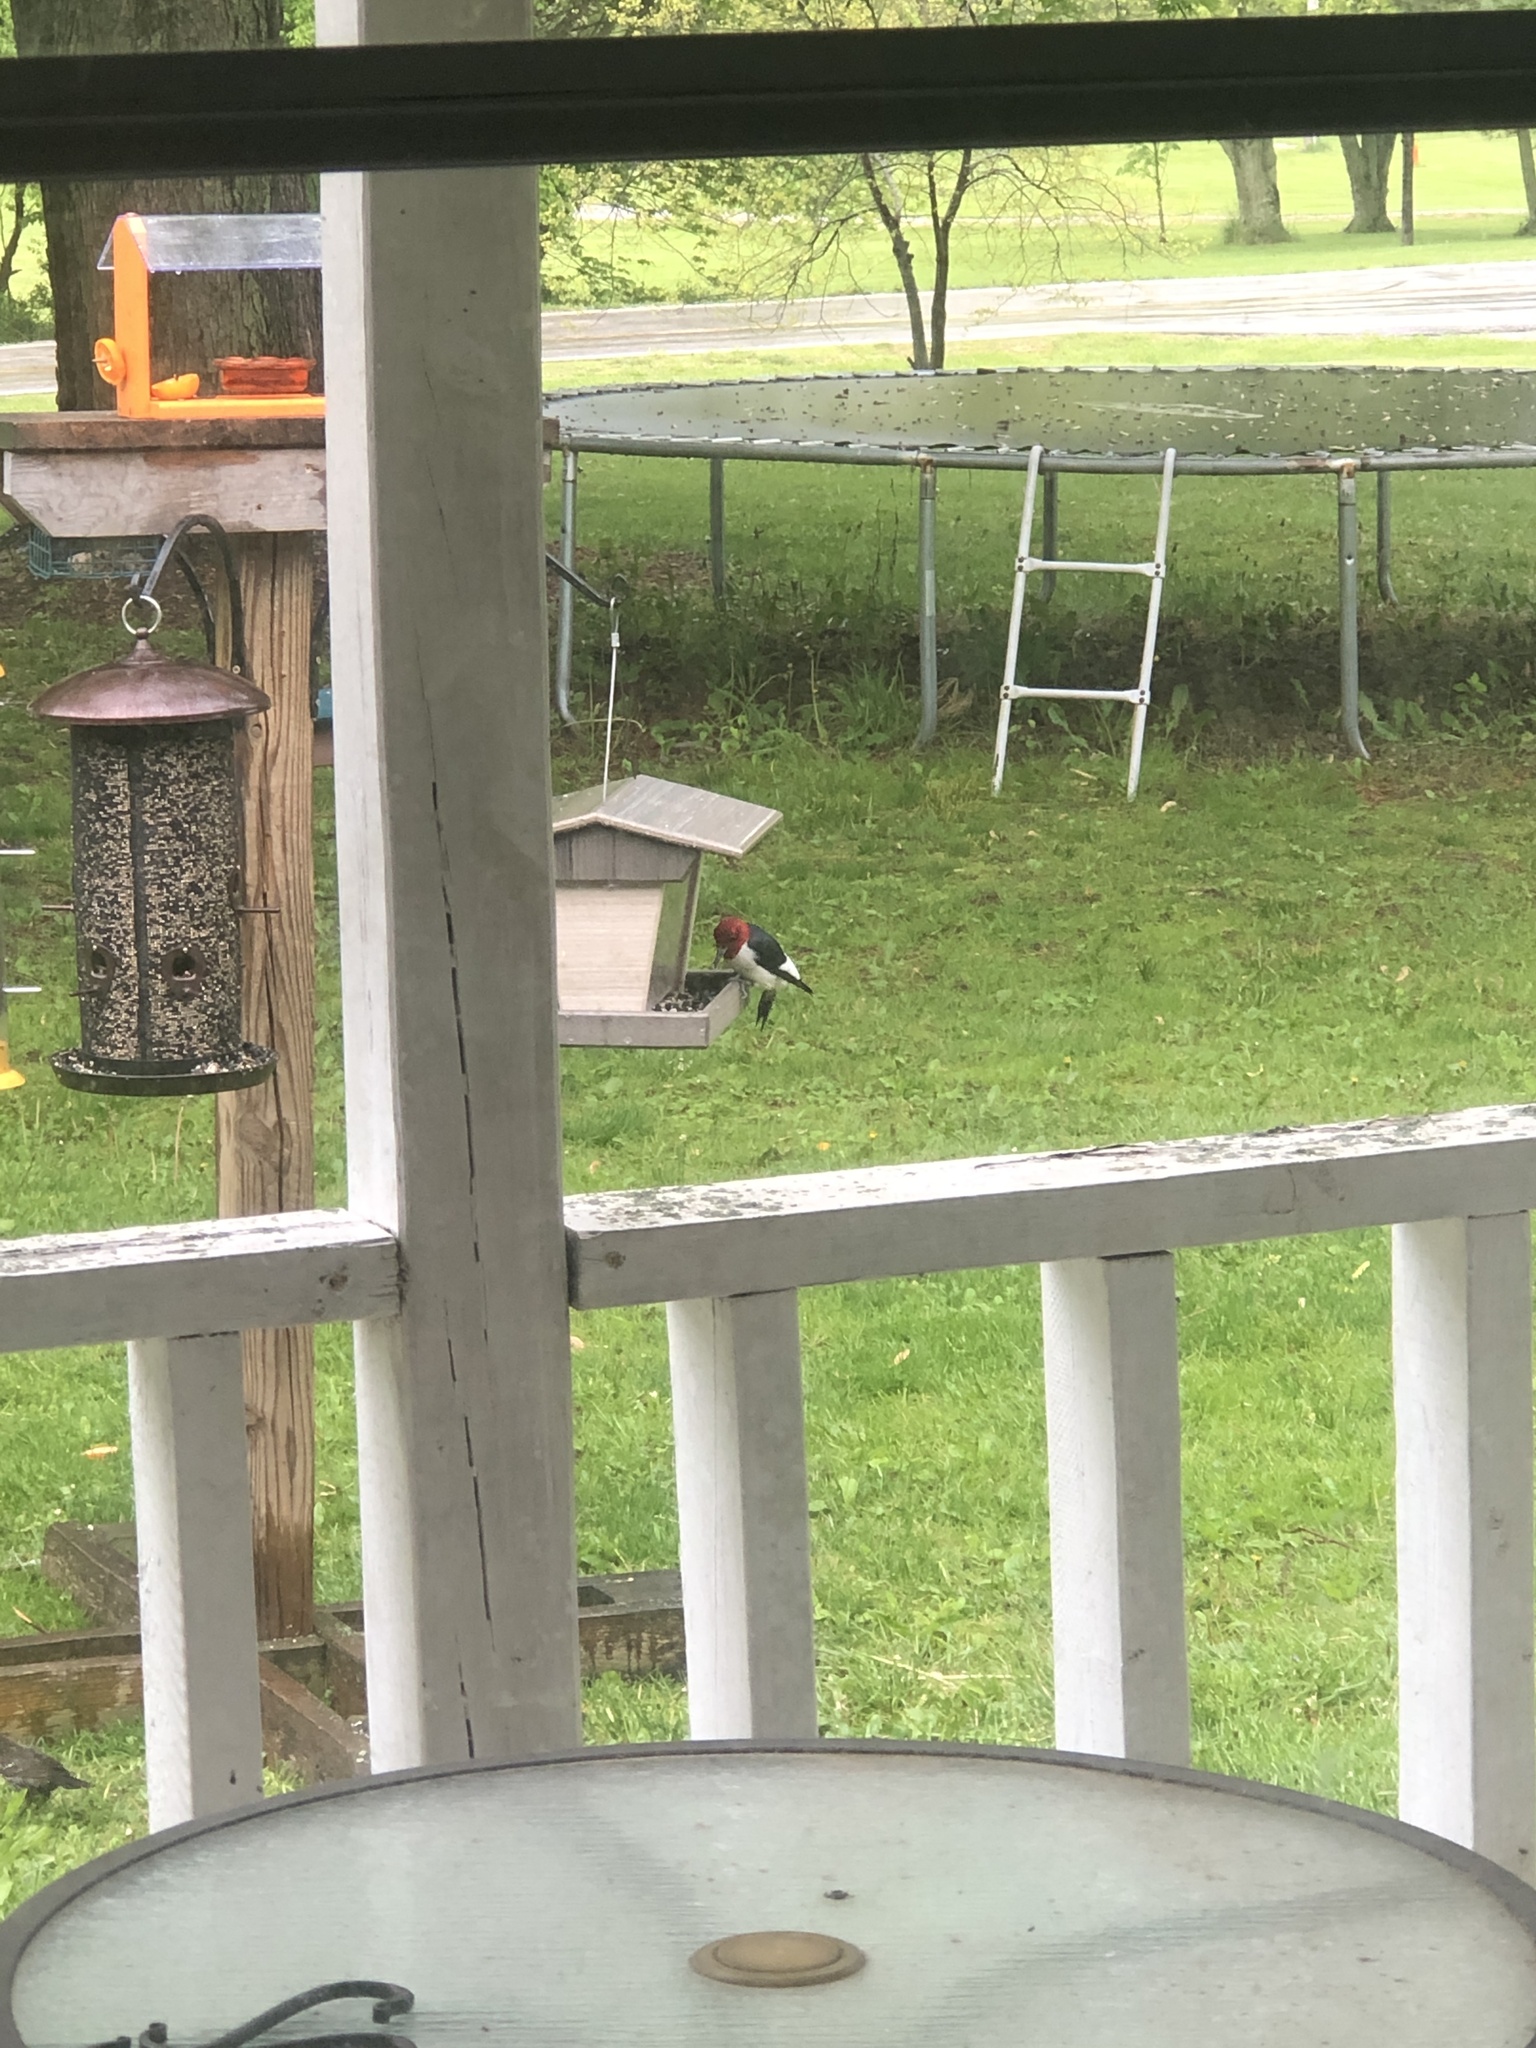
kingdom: Animalia
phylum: Chordata
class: Aves
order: Piciformes
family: Picidae
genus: Melanerpes
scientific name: Melanerpes erythrocephalus
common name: Red-headed woodpecker
